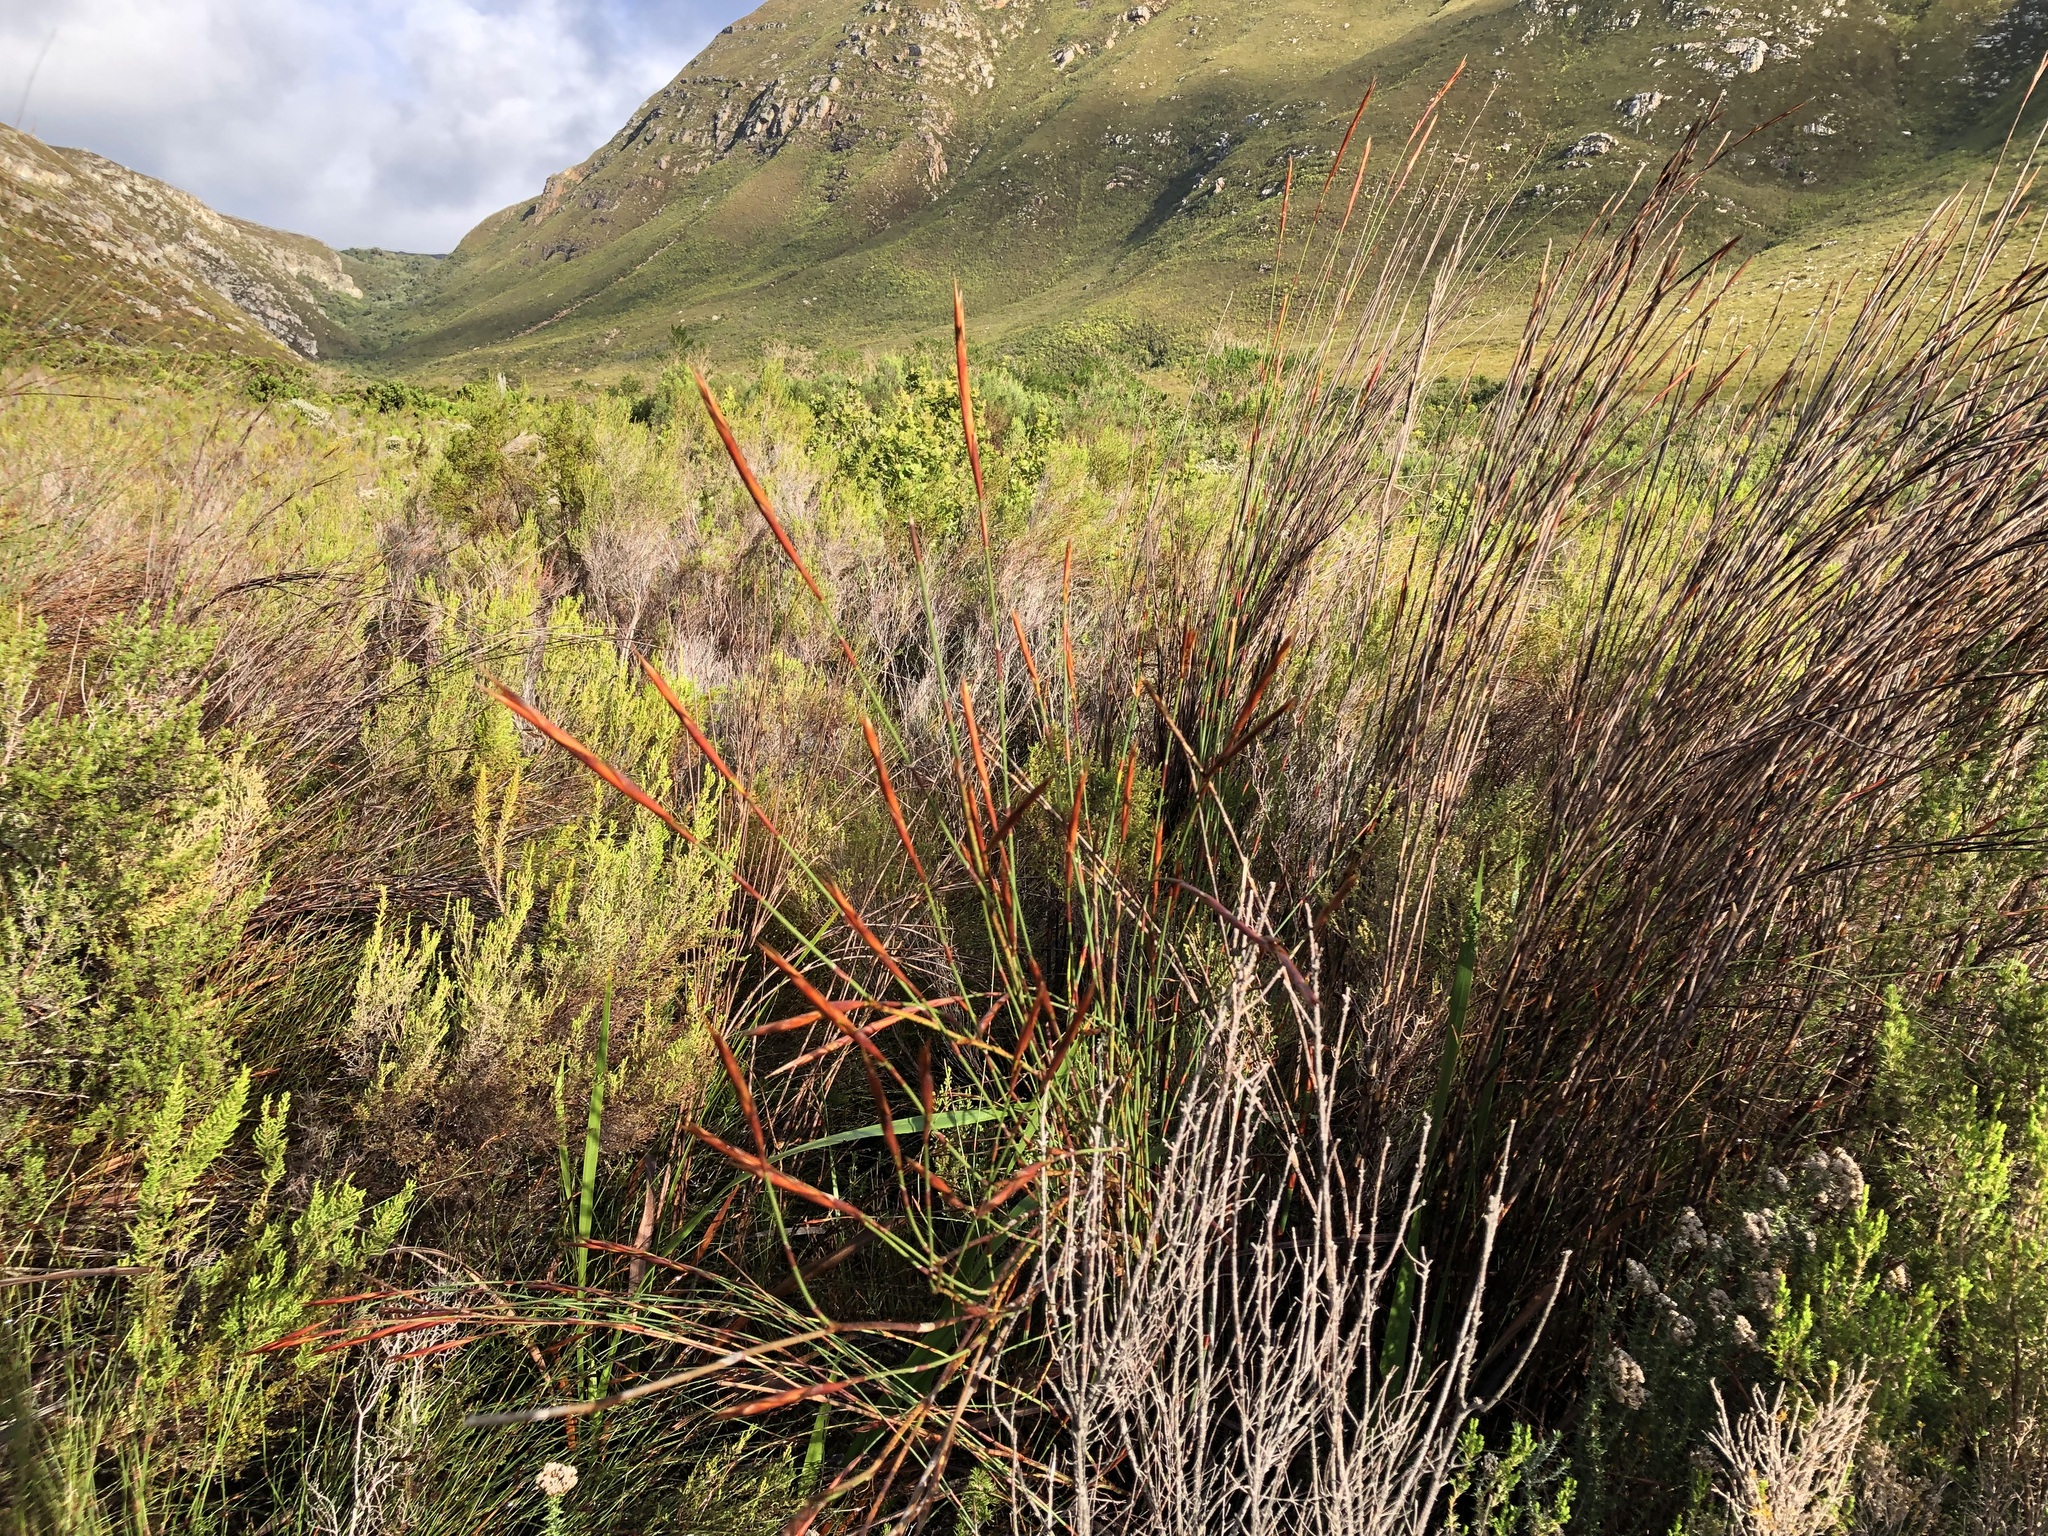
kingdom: Plantae
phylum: Tracheophyta
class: Liliopsida
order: Poales
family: Restionaceae
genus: Restio
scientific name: Restio dispar
